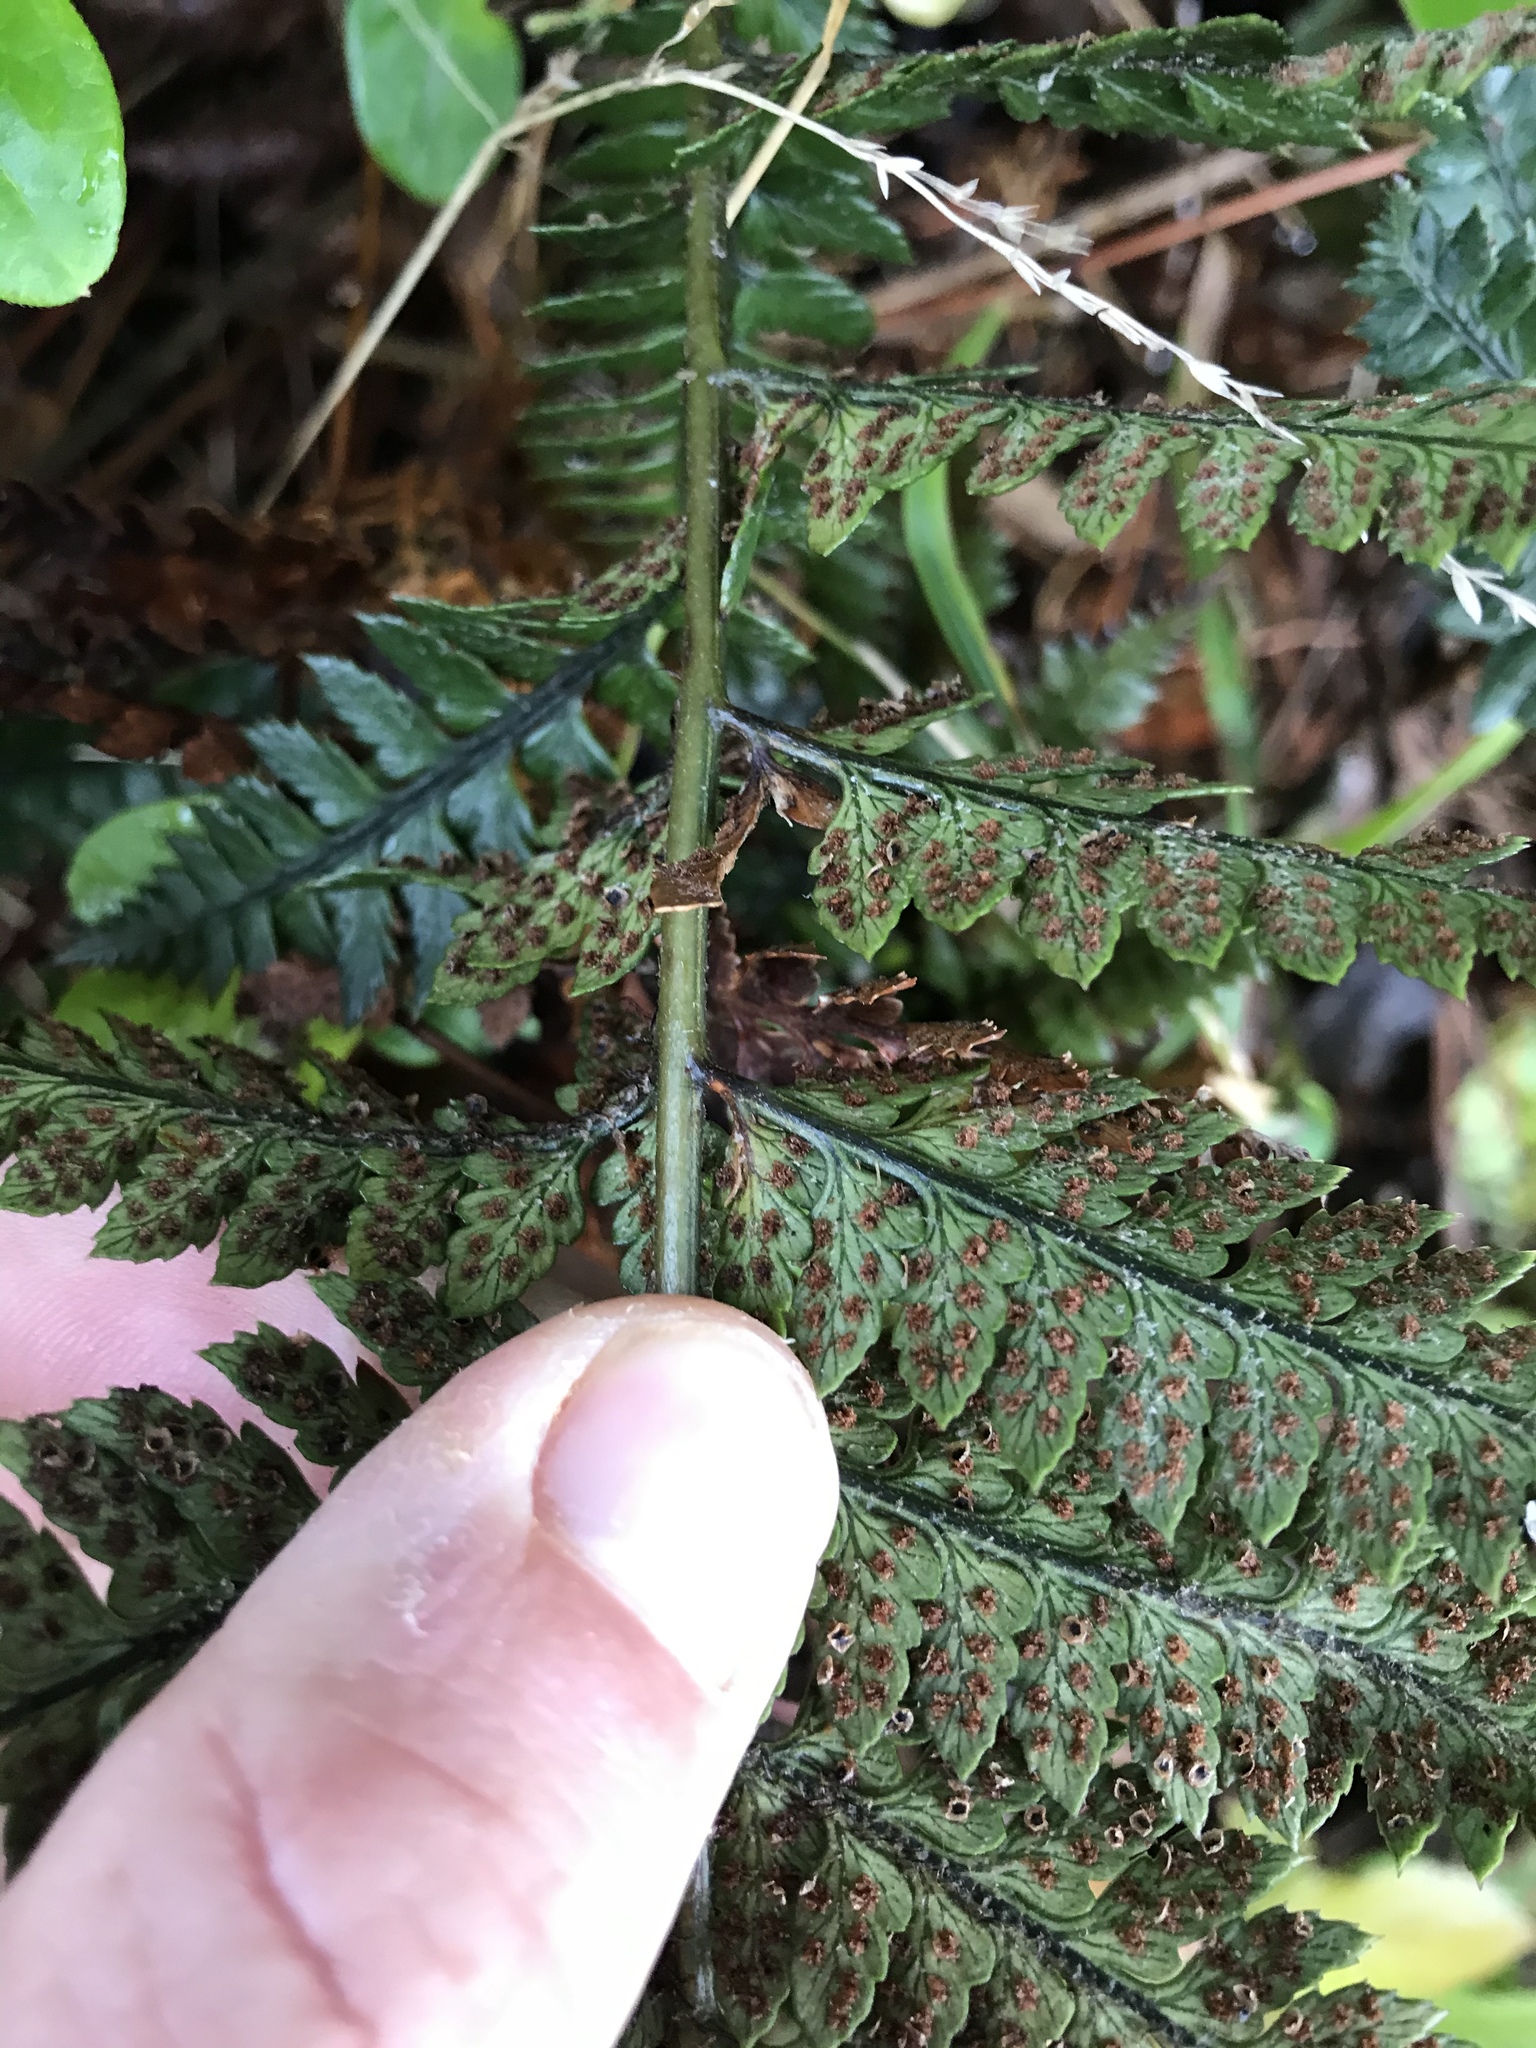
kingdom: Plantae
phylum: Tracheophyta
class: Polypodiopsida
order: Polypodiales
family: Dryopteridaceae
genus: Polystichum
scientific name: Polystichum neozelandicum
